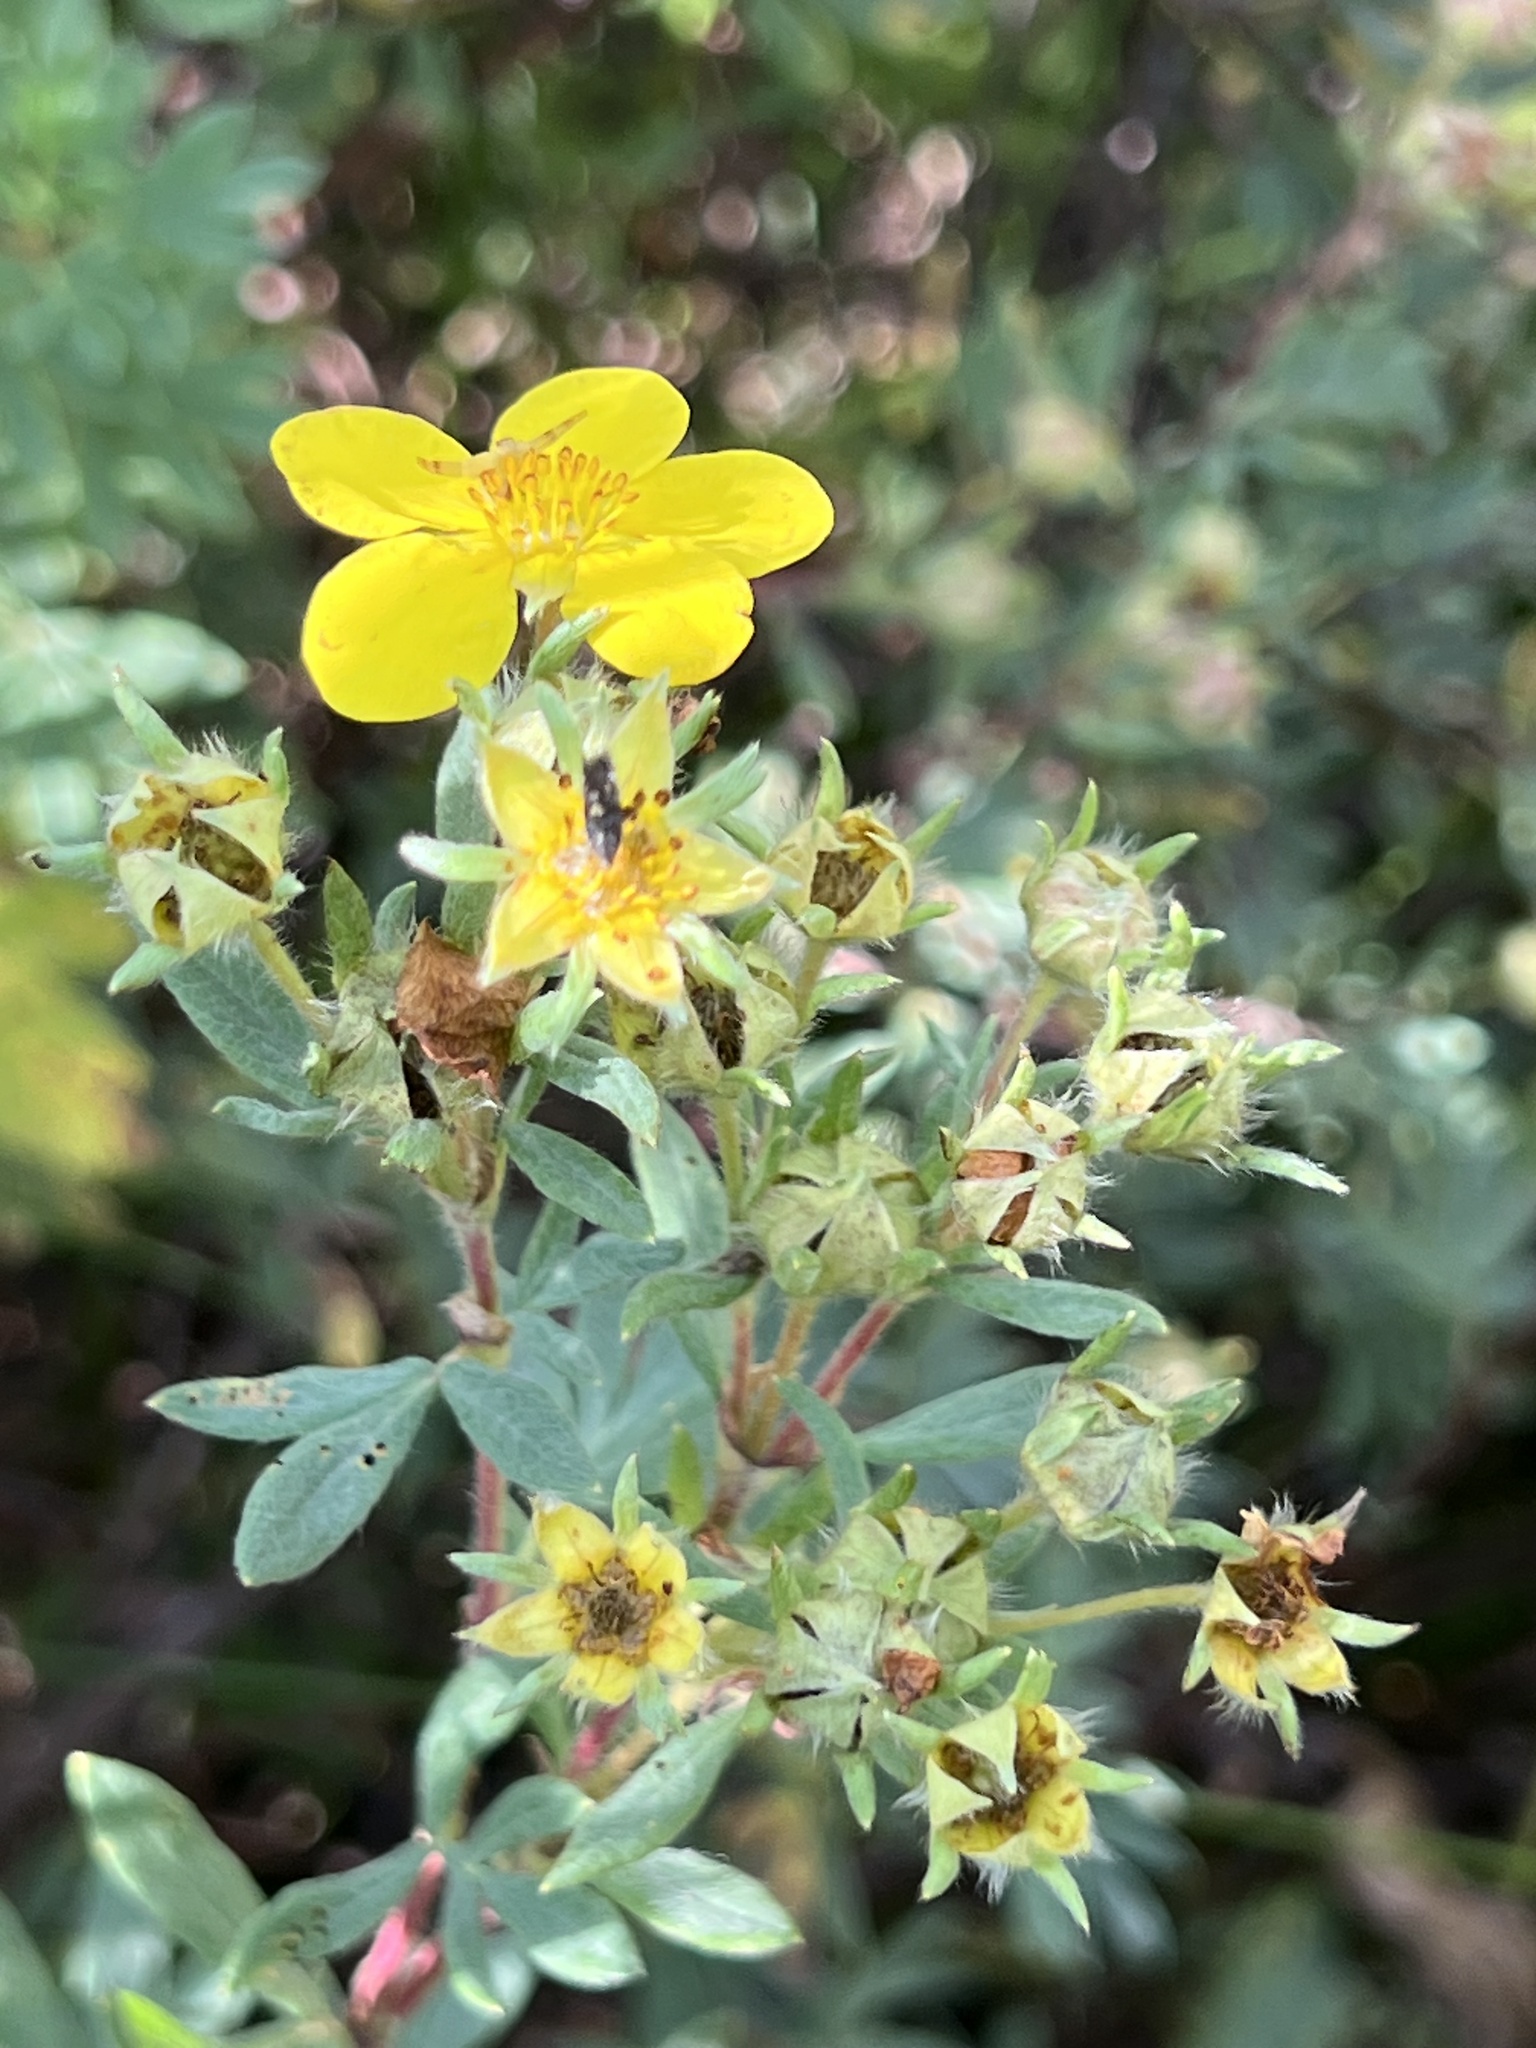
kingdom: Plantae
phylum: Tracheophyta
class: Magnoliopsida
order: Rosales
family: Rosaceae
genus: Dasiphora
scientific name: Dasiphora fruticosa
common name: Shrubby cinquefoil
